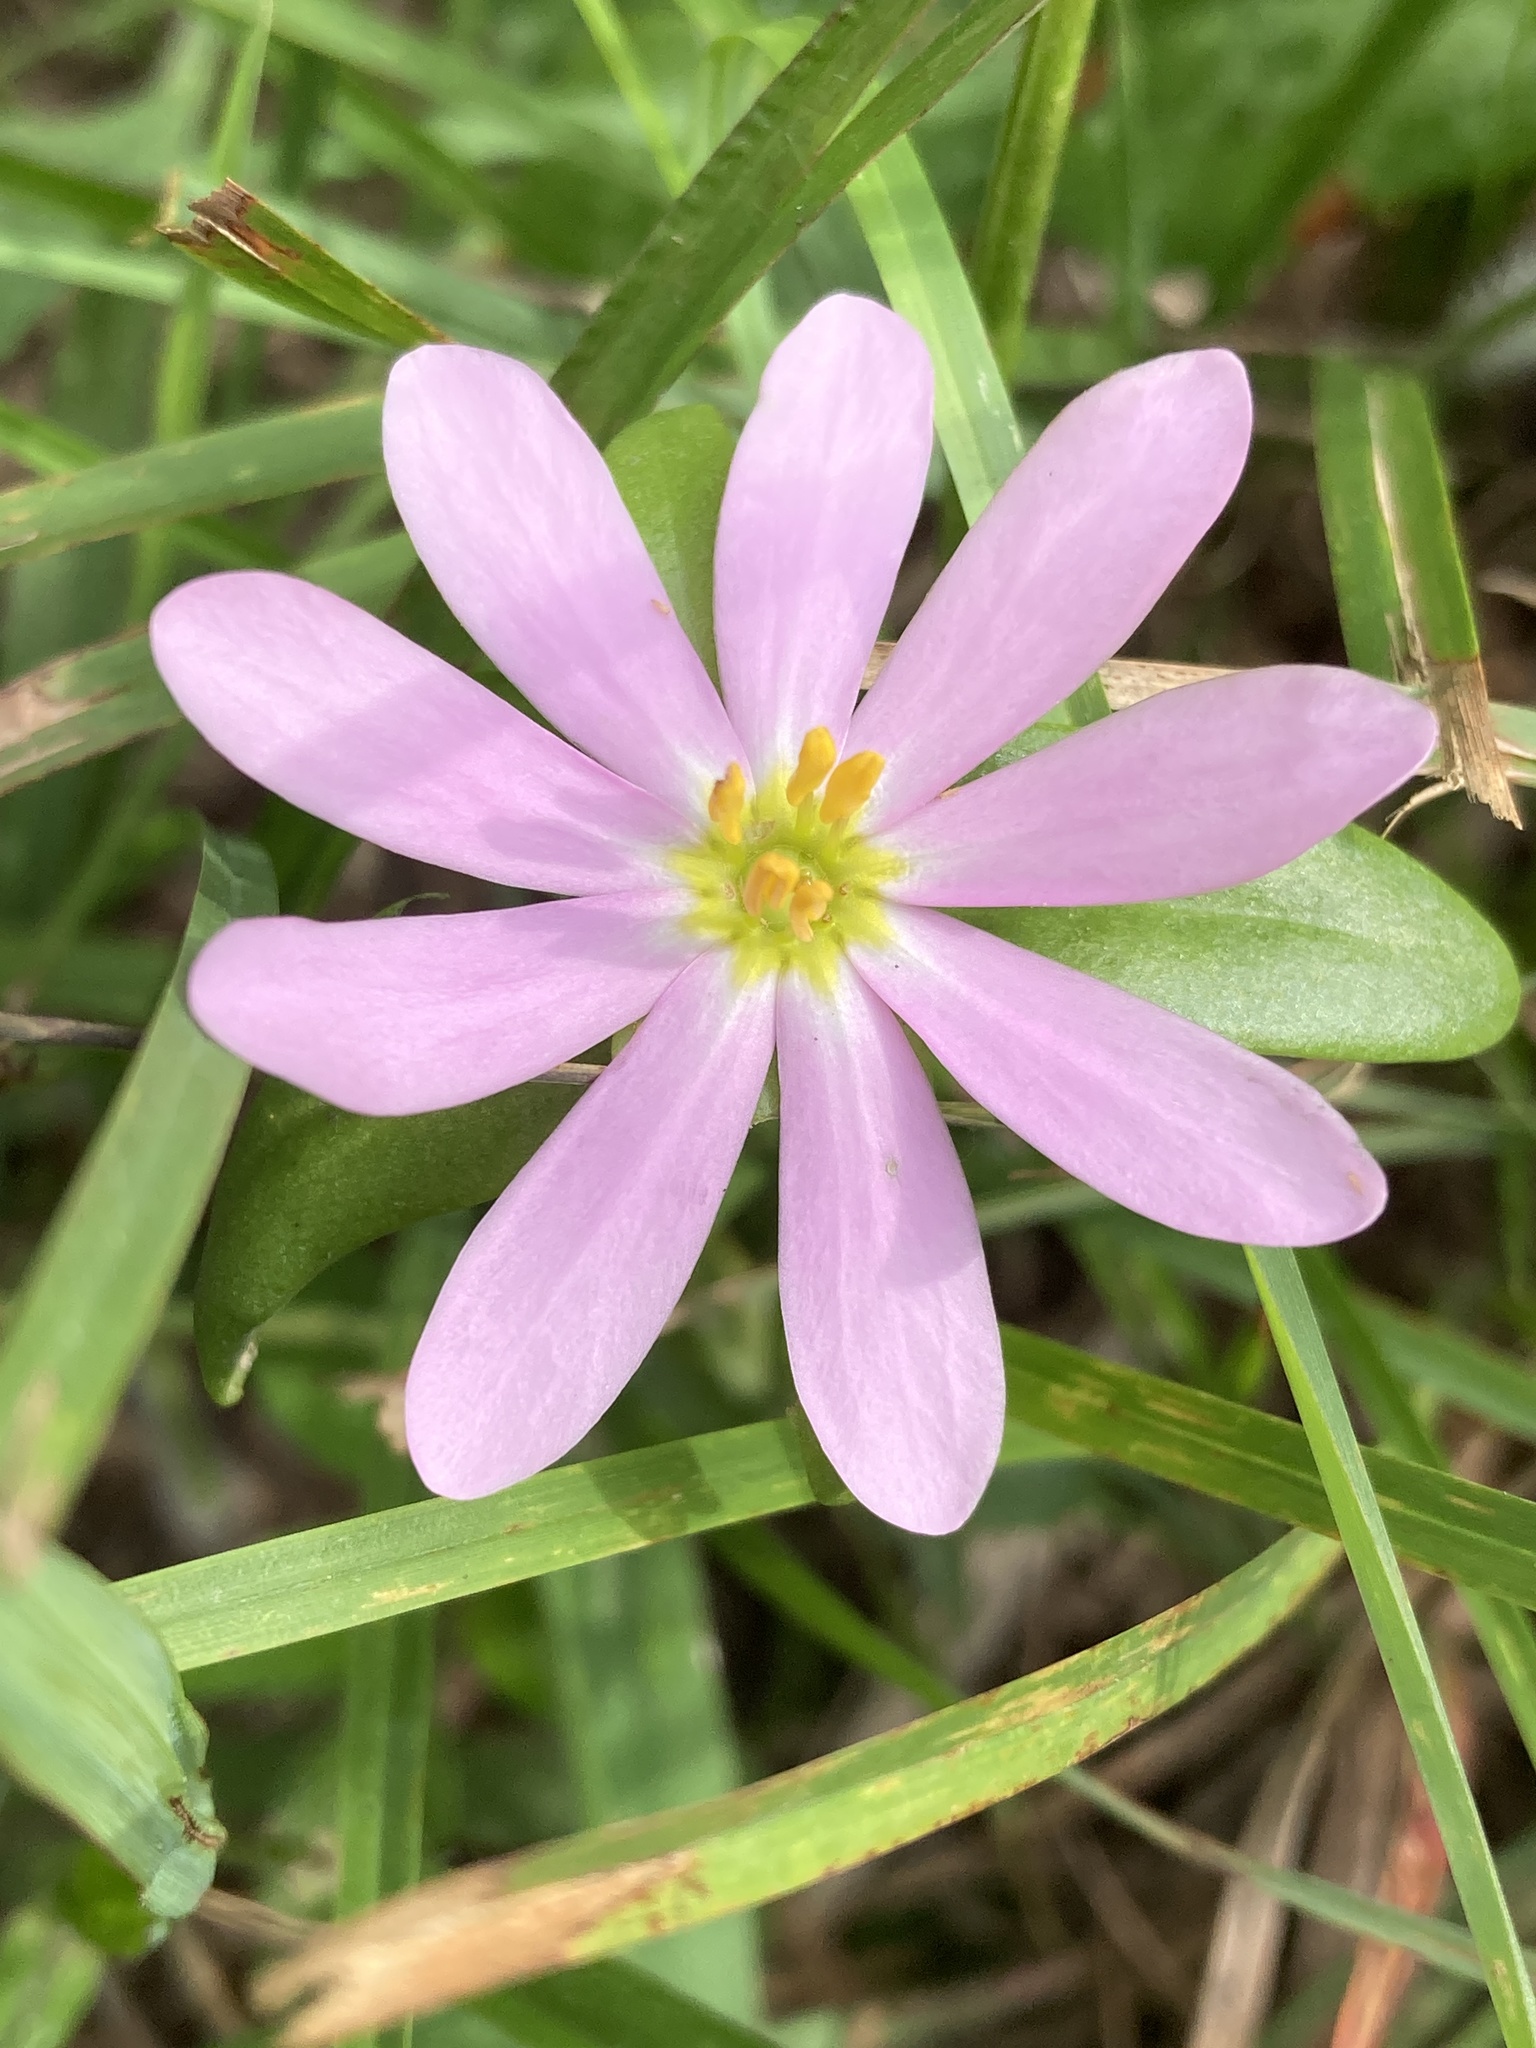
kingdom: Plantae
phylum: Tracheophyta
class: Magnoliopsida
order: Gentianales
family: Gentianaceae
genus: Sabatia
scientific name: Sabatia capitata
